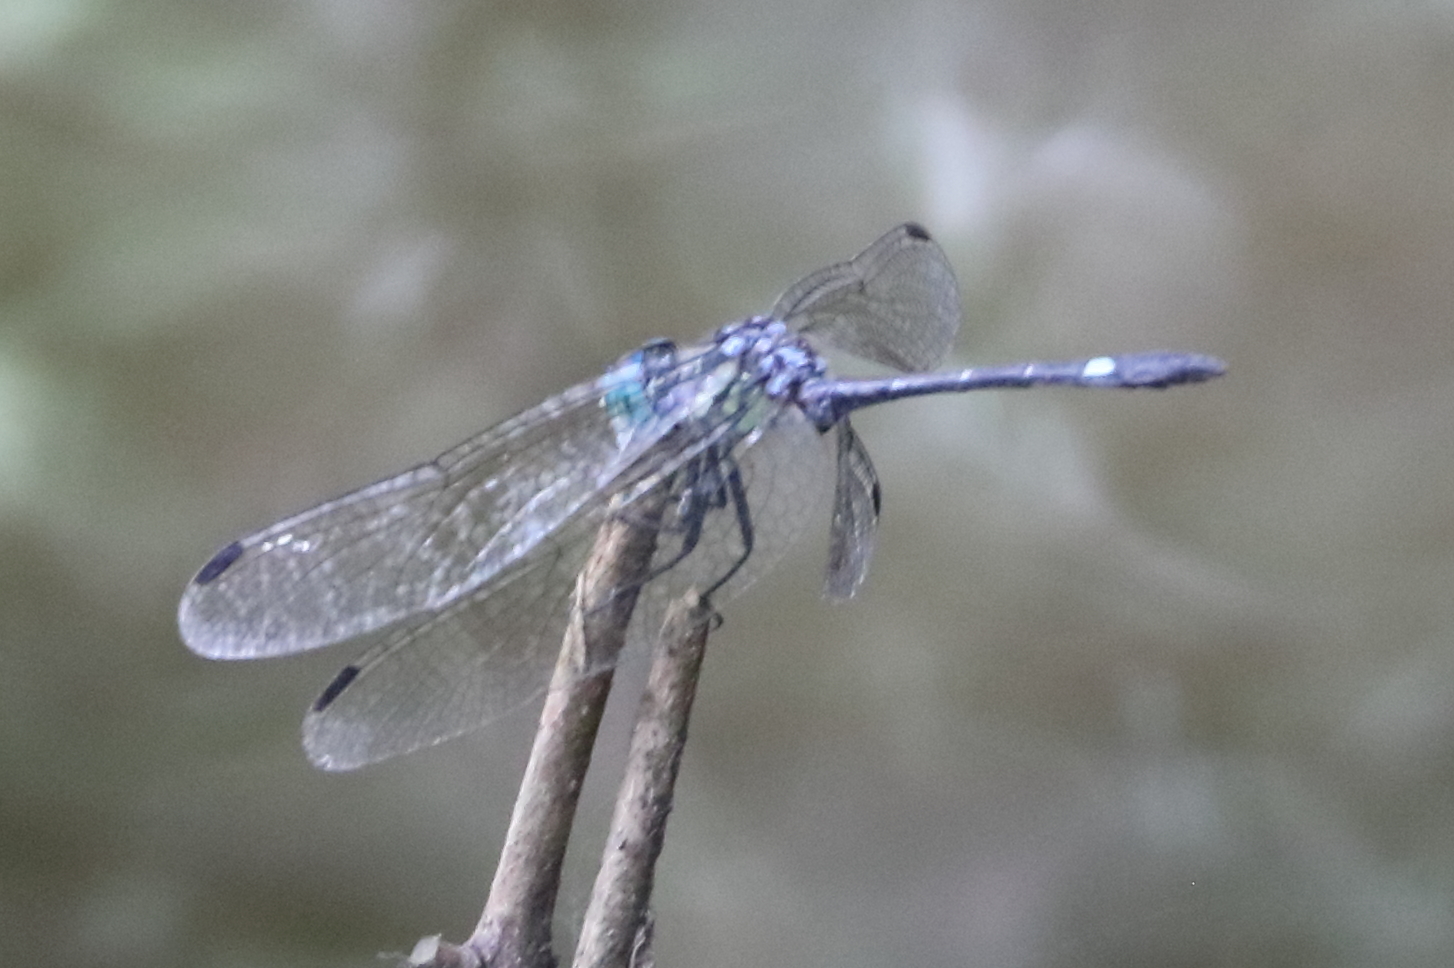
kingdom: Animalia
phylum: Arthropoda
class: Insecta
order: Odonata
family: Libellulidae
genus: Micrathyria
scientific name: Micrathyria didyma
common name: Three-striped dasher
